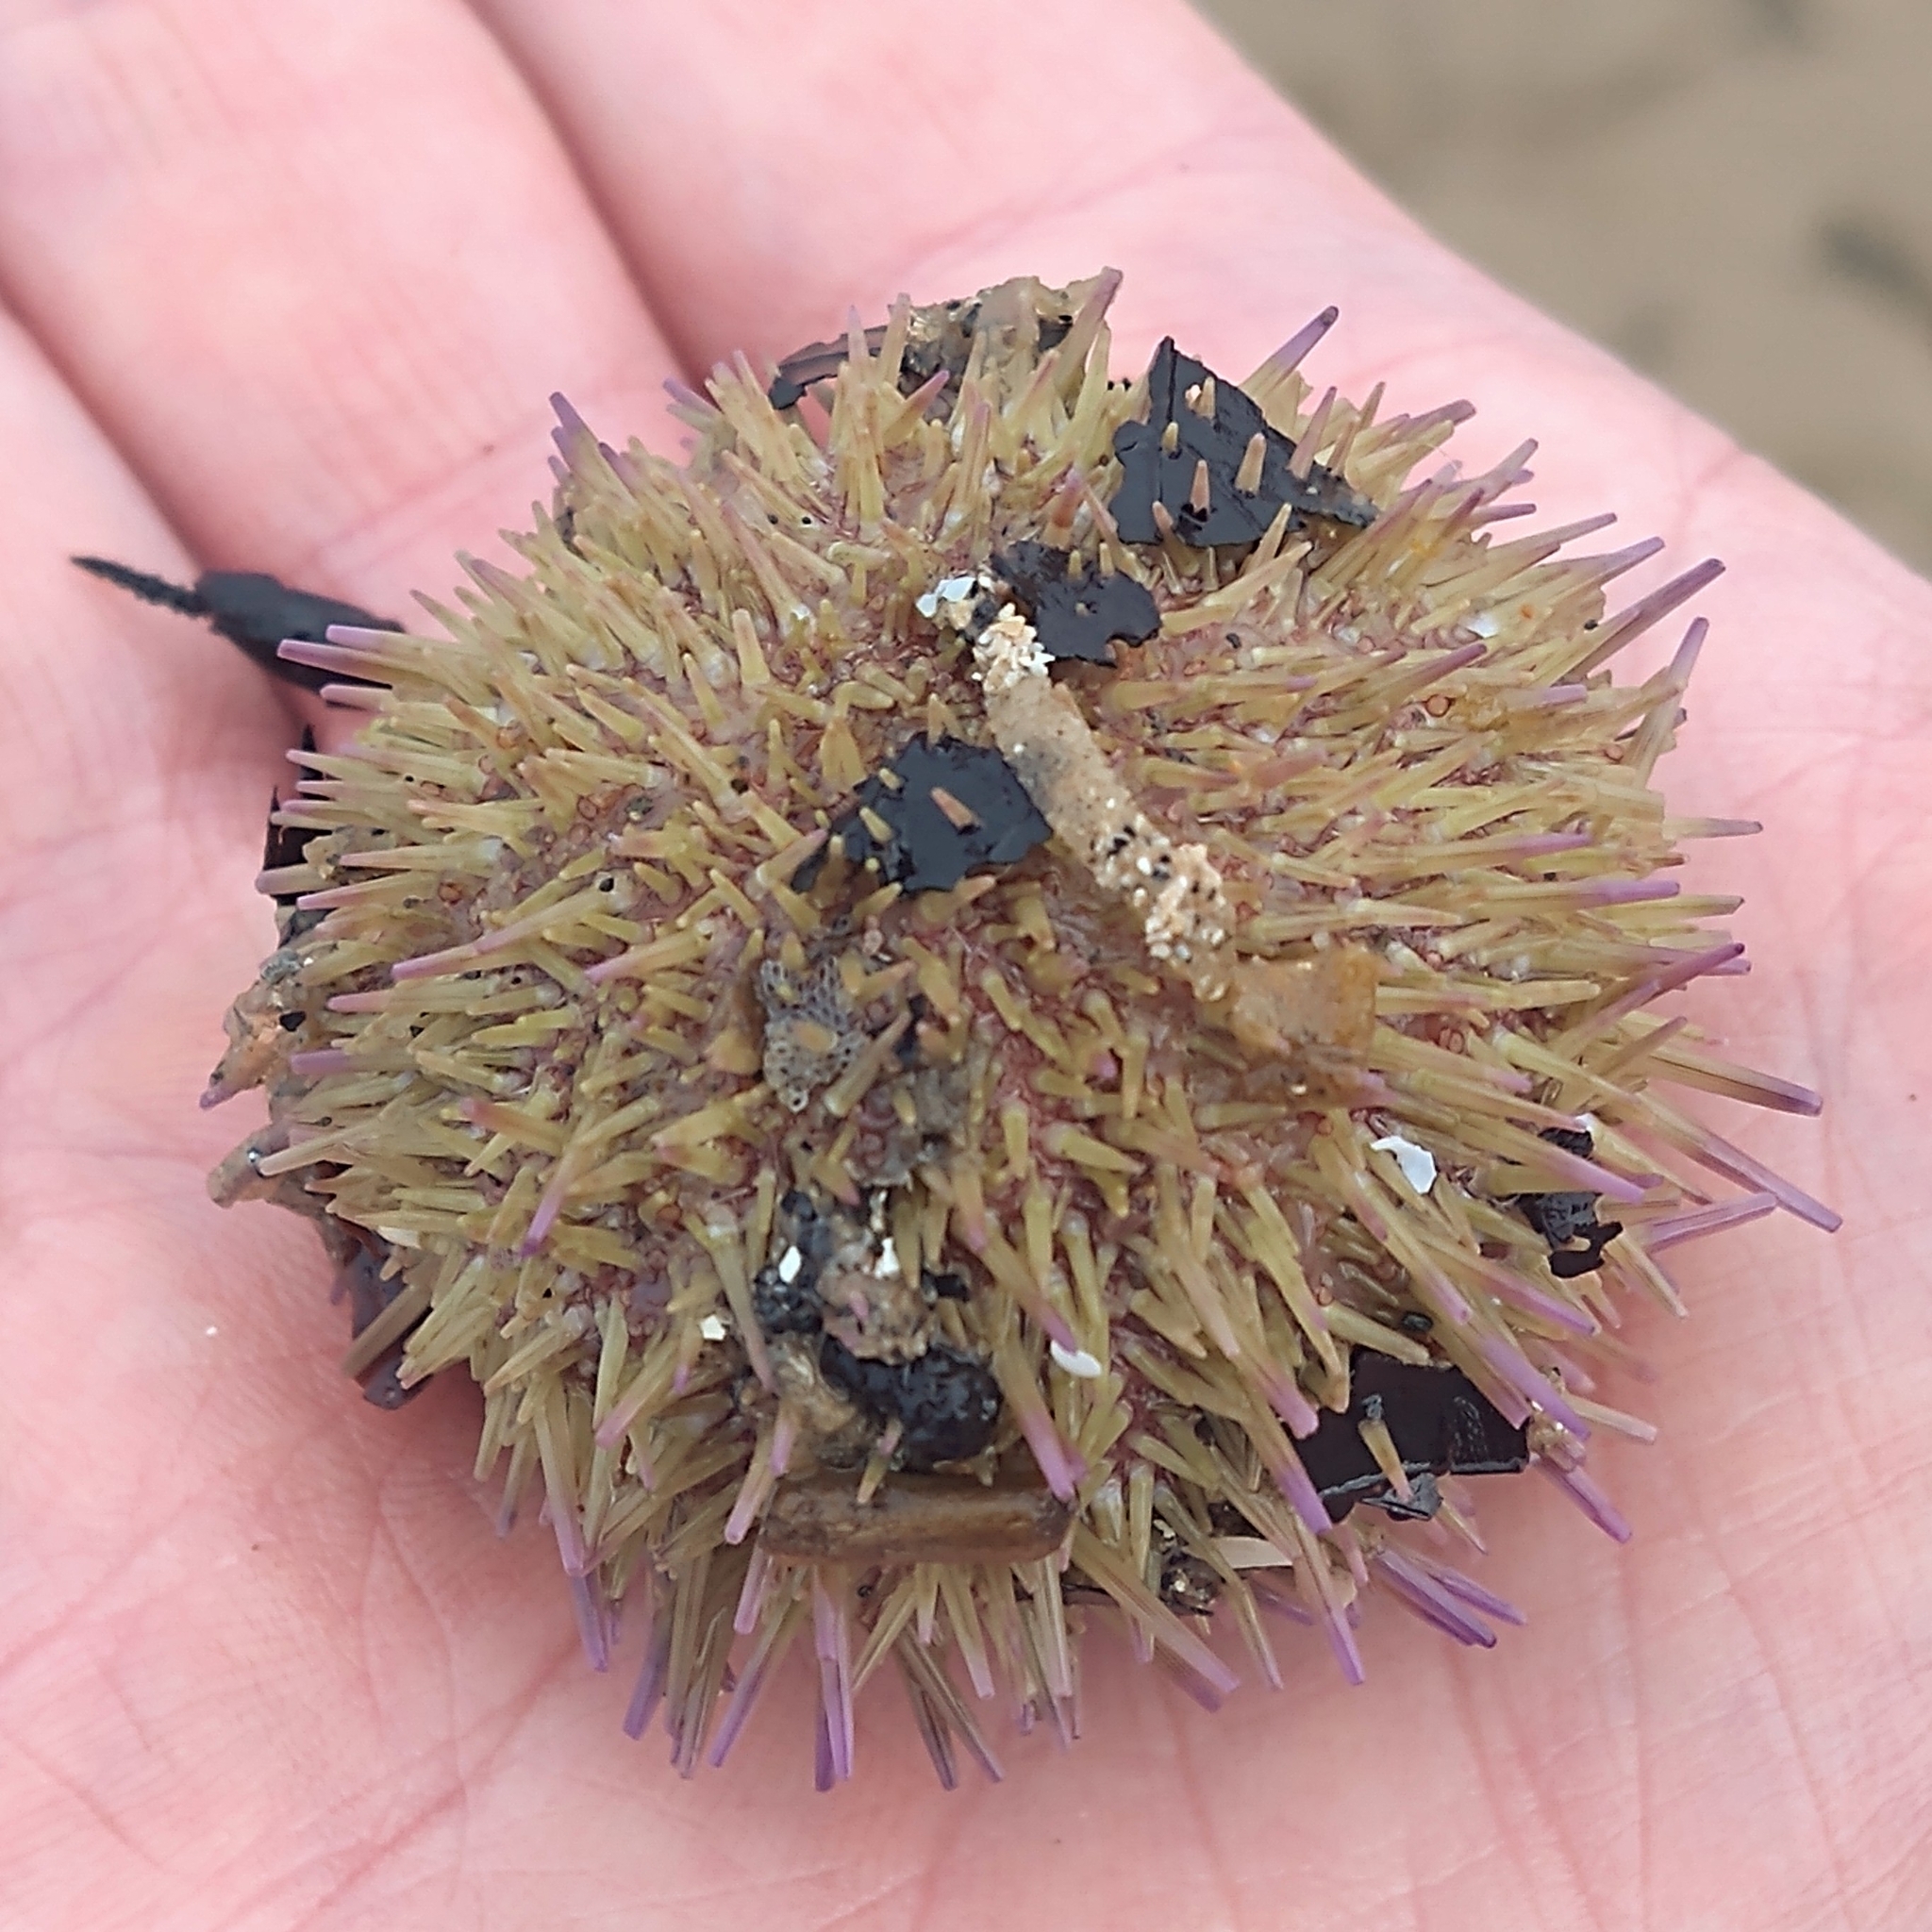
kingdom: Animalia
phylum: Echinodermata
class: Echinoidea
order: Camarodonta
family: Parechinidae
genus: Psammechinus
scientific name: Psammechinus miliaris
